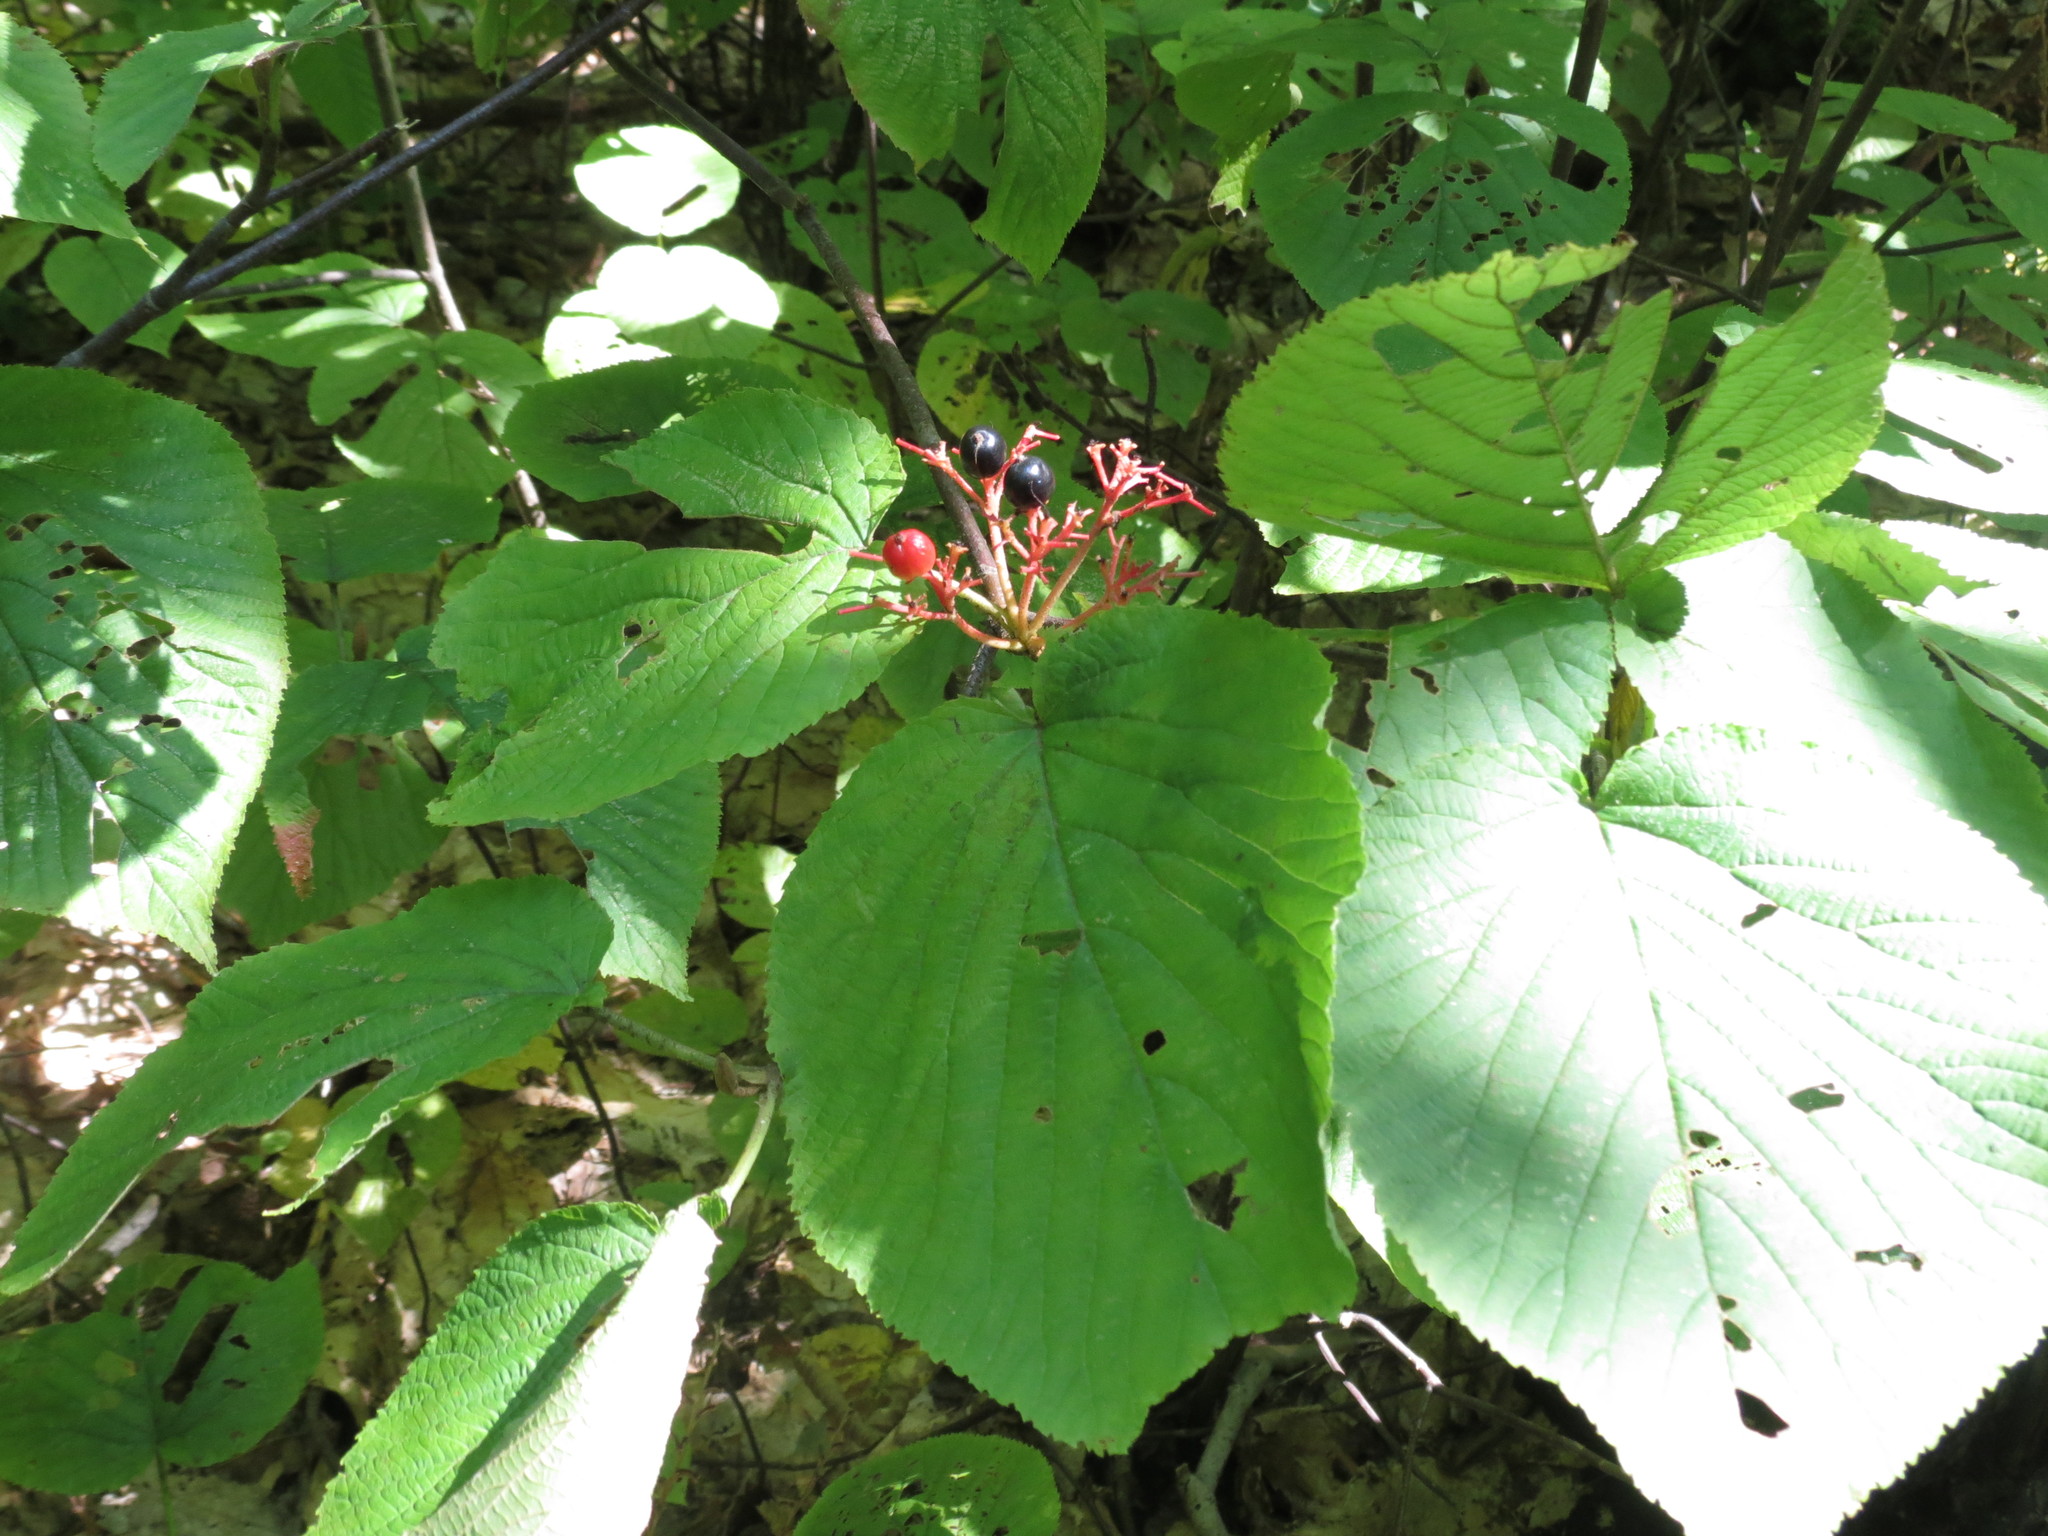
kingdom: Plantae
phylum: Tracheophyta
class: Magnoliopsida
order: Dipsacales
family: Viburnaceae
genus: Viburnum
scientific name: Viburnum lantanoides
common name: Hobblebush
